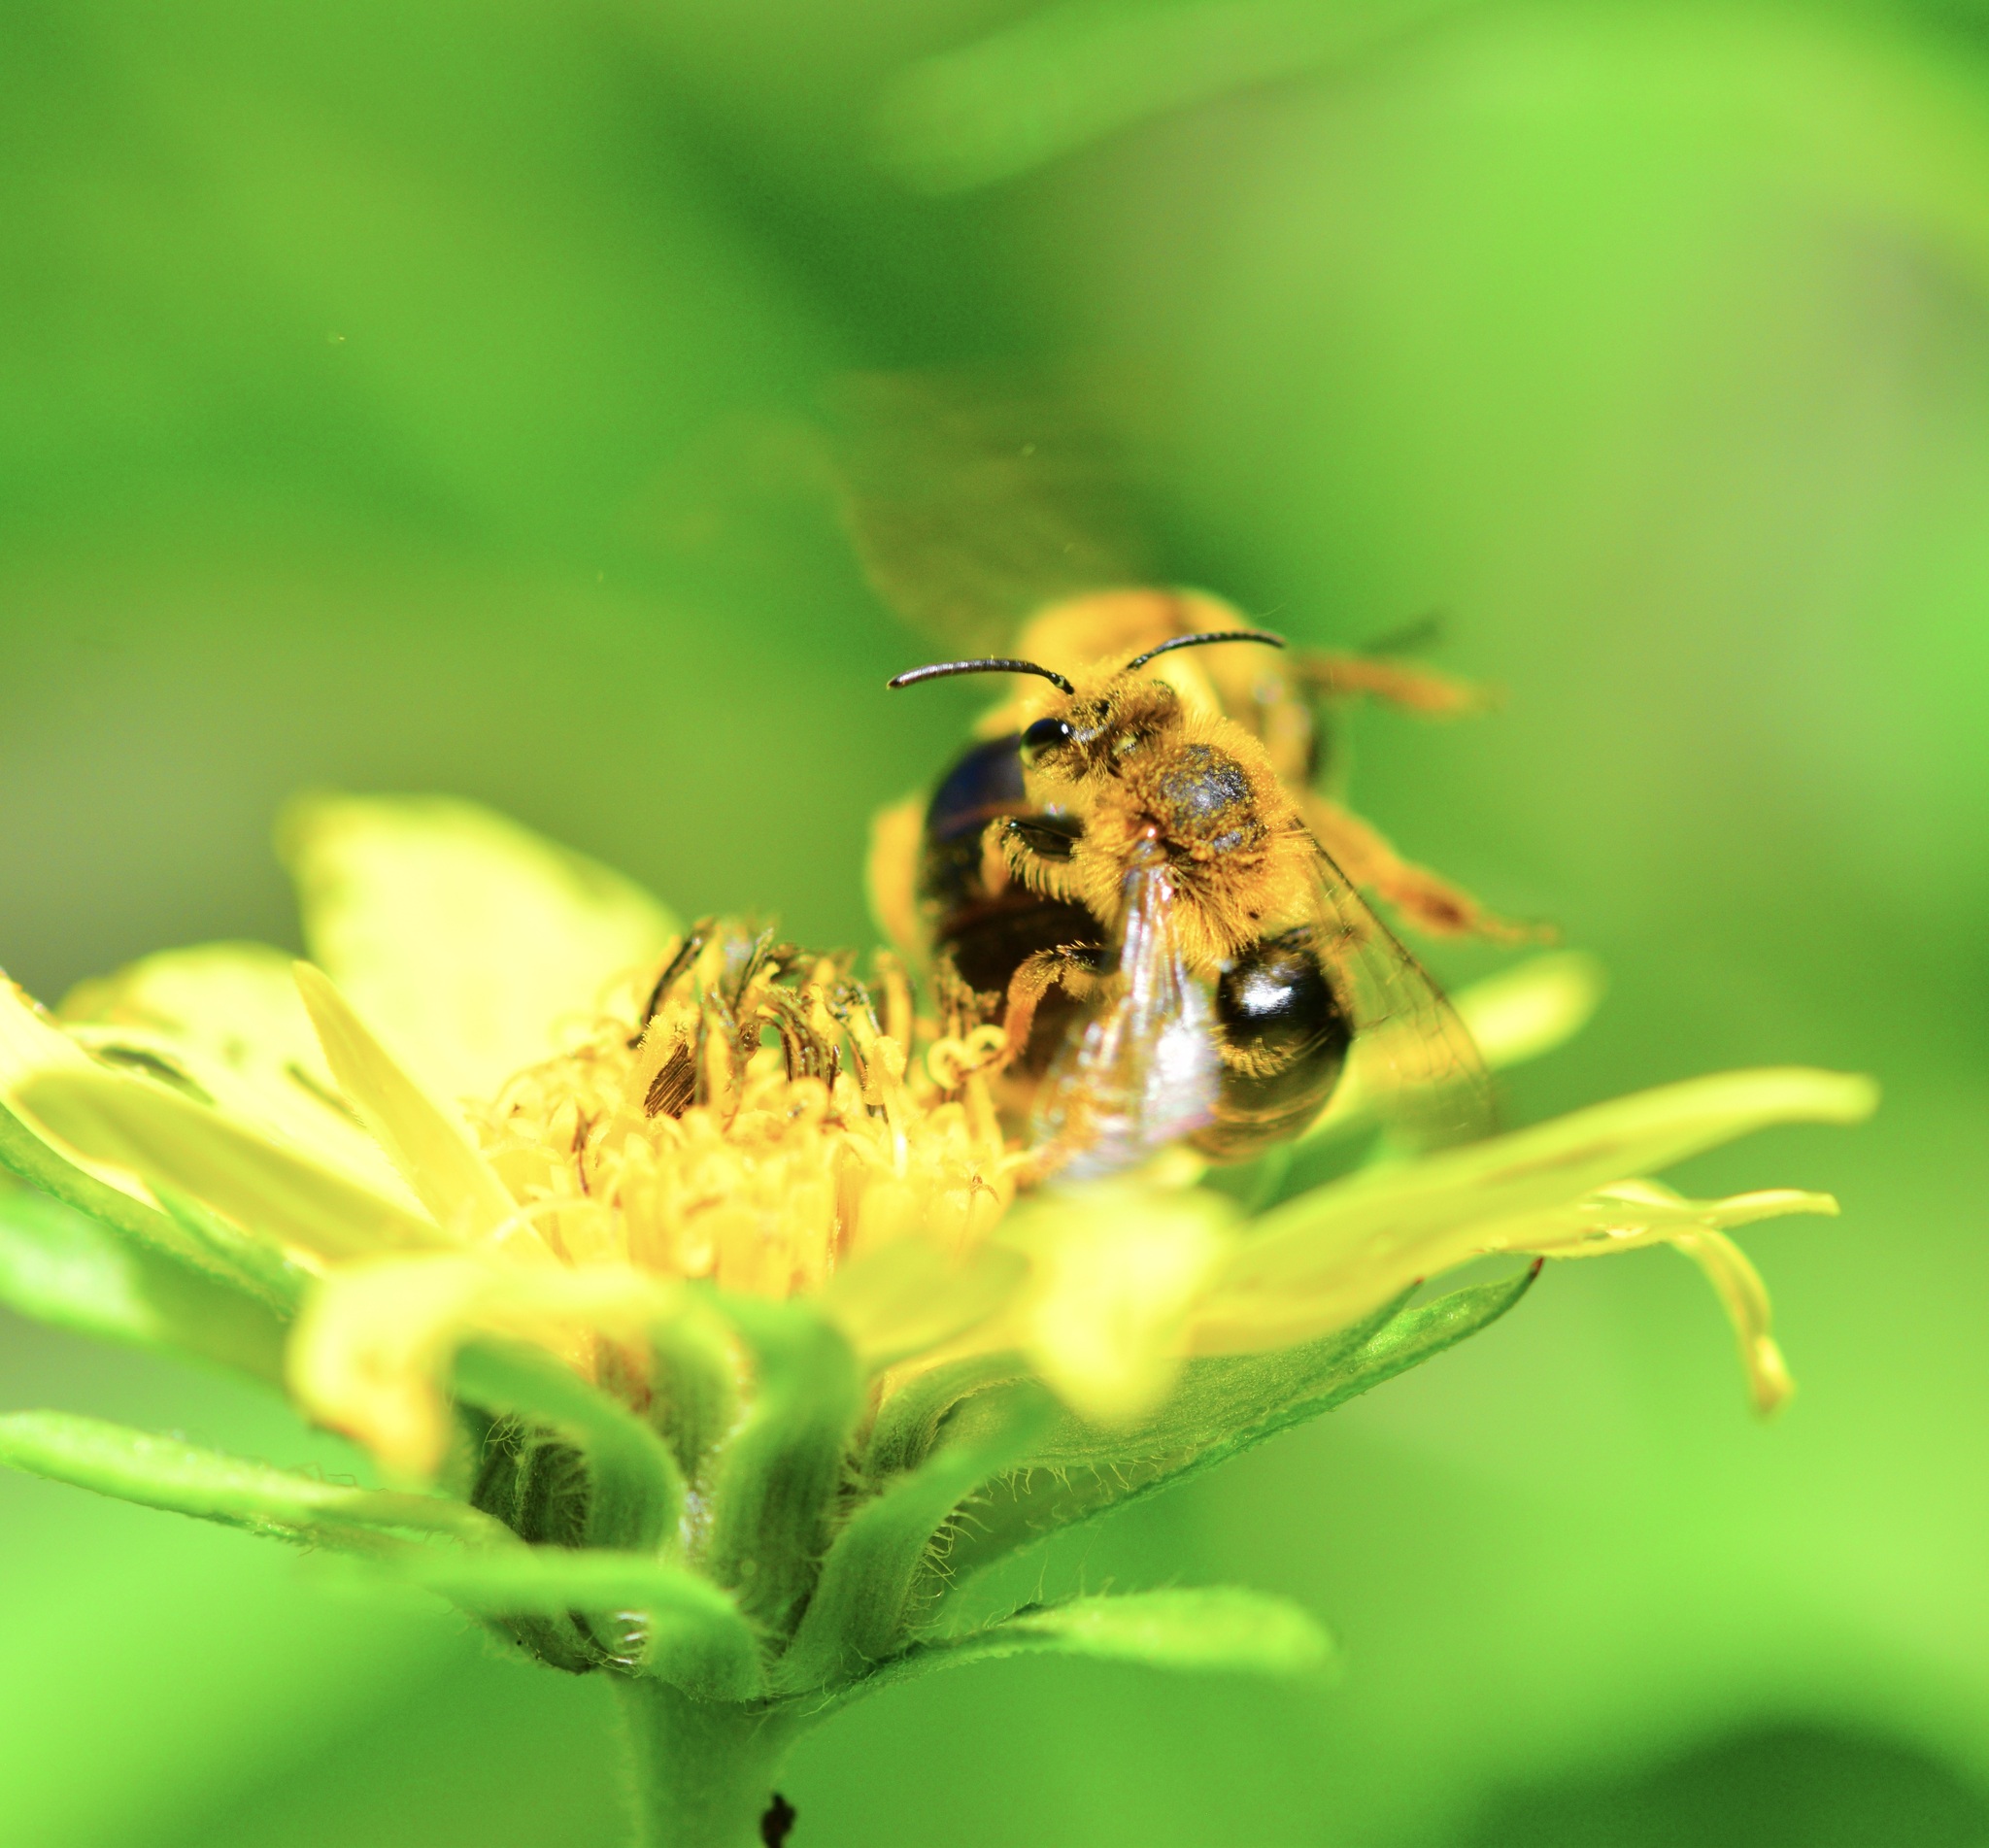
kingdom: Animalia
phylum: Arthropoda
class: Insecta
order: Hymenoptera
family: Andrenidae
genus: Andrena
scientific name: Andrena helianthi
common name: Sunflower mining bee
